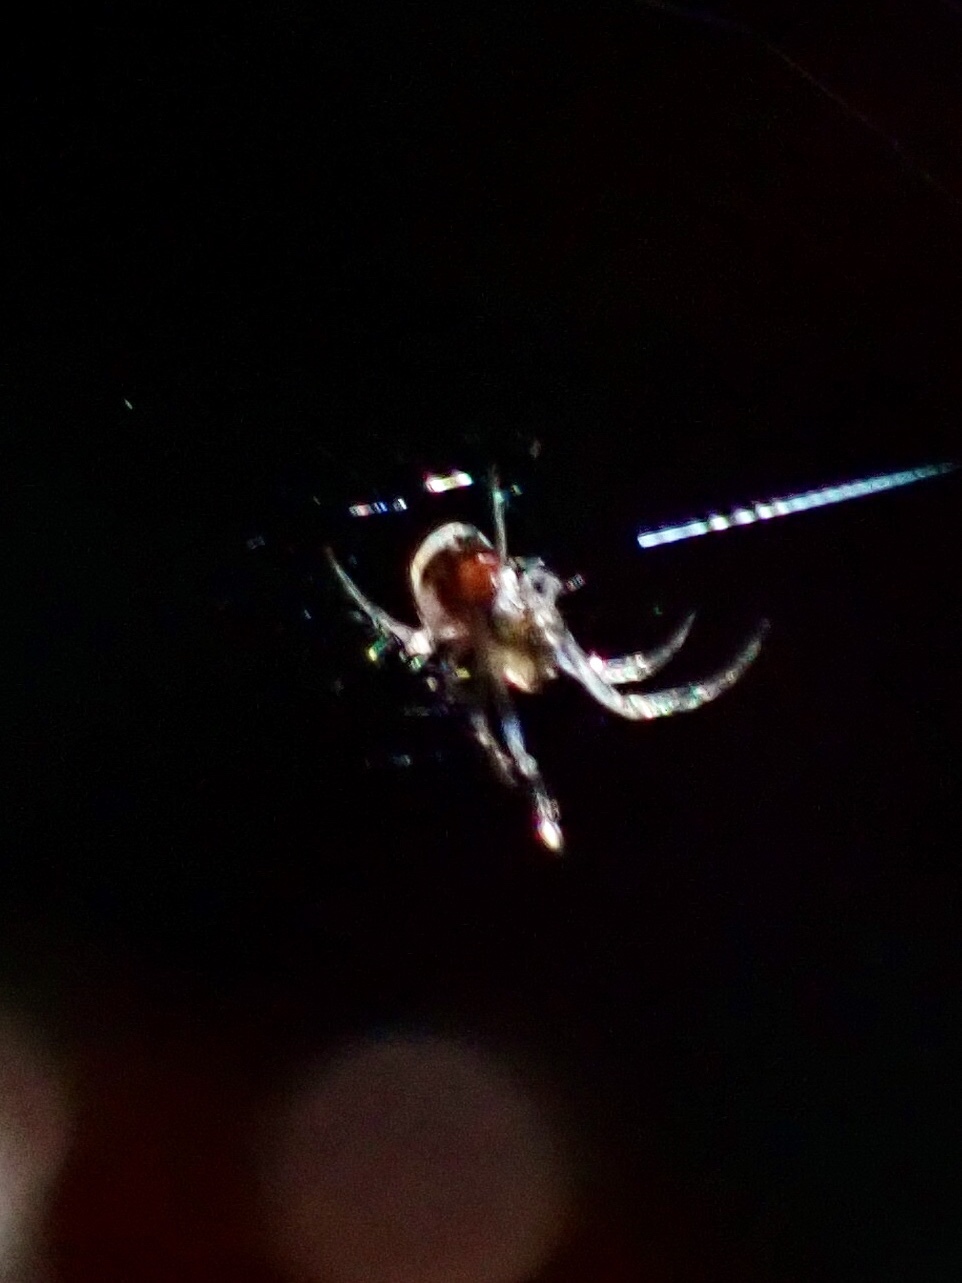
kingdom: Animalia
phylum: Arthropoda
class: Arachnida
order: Araneae
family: Tetragnathidae
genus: Leucauge
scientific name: Leucauge
